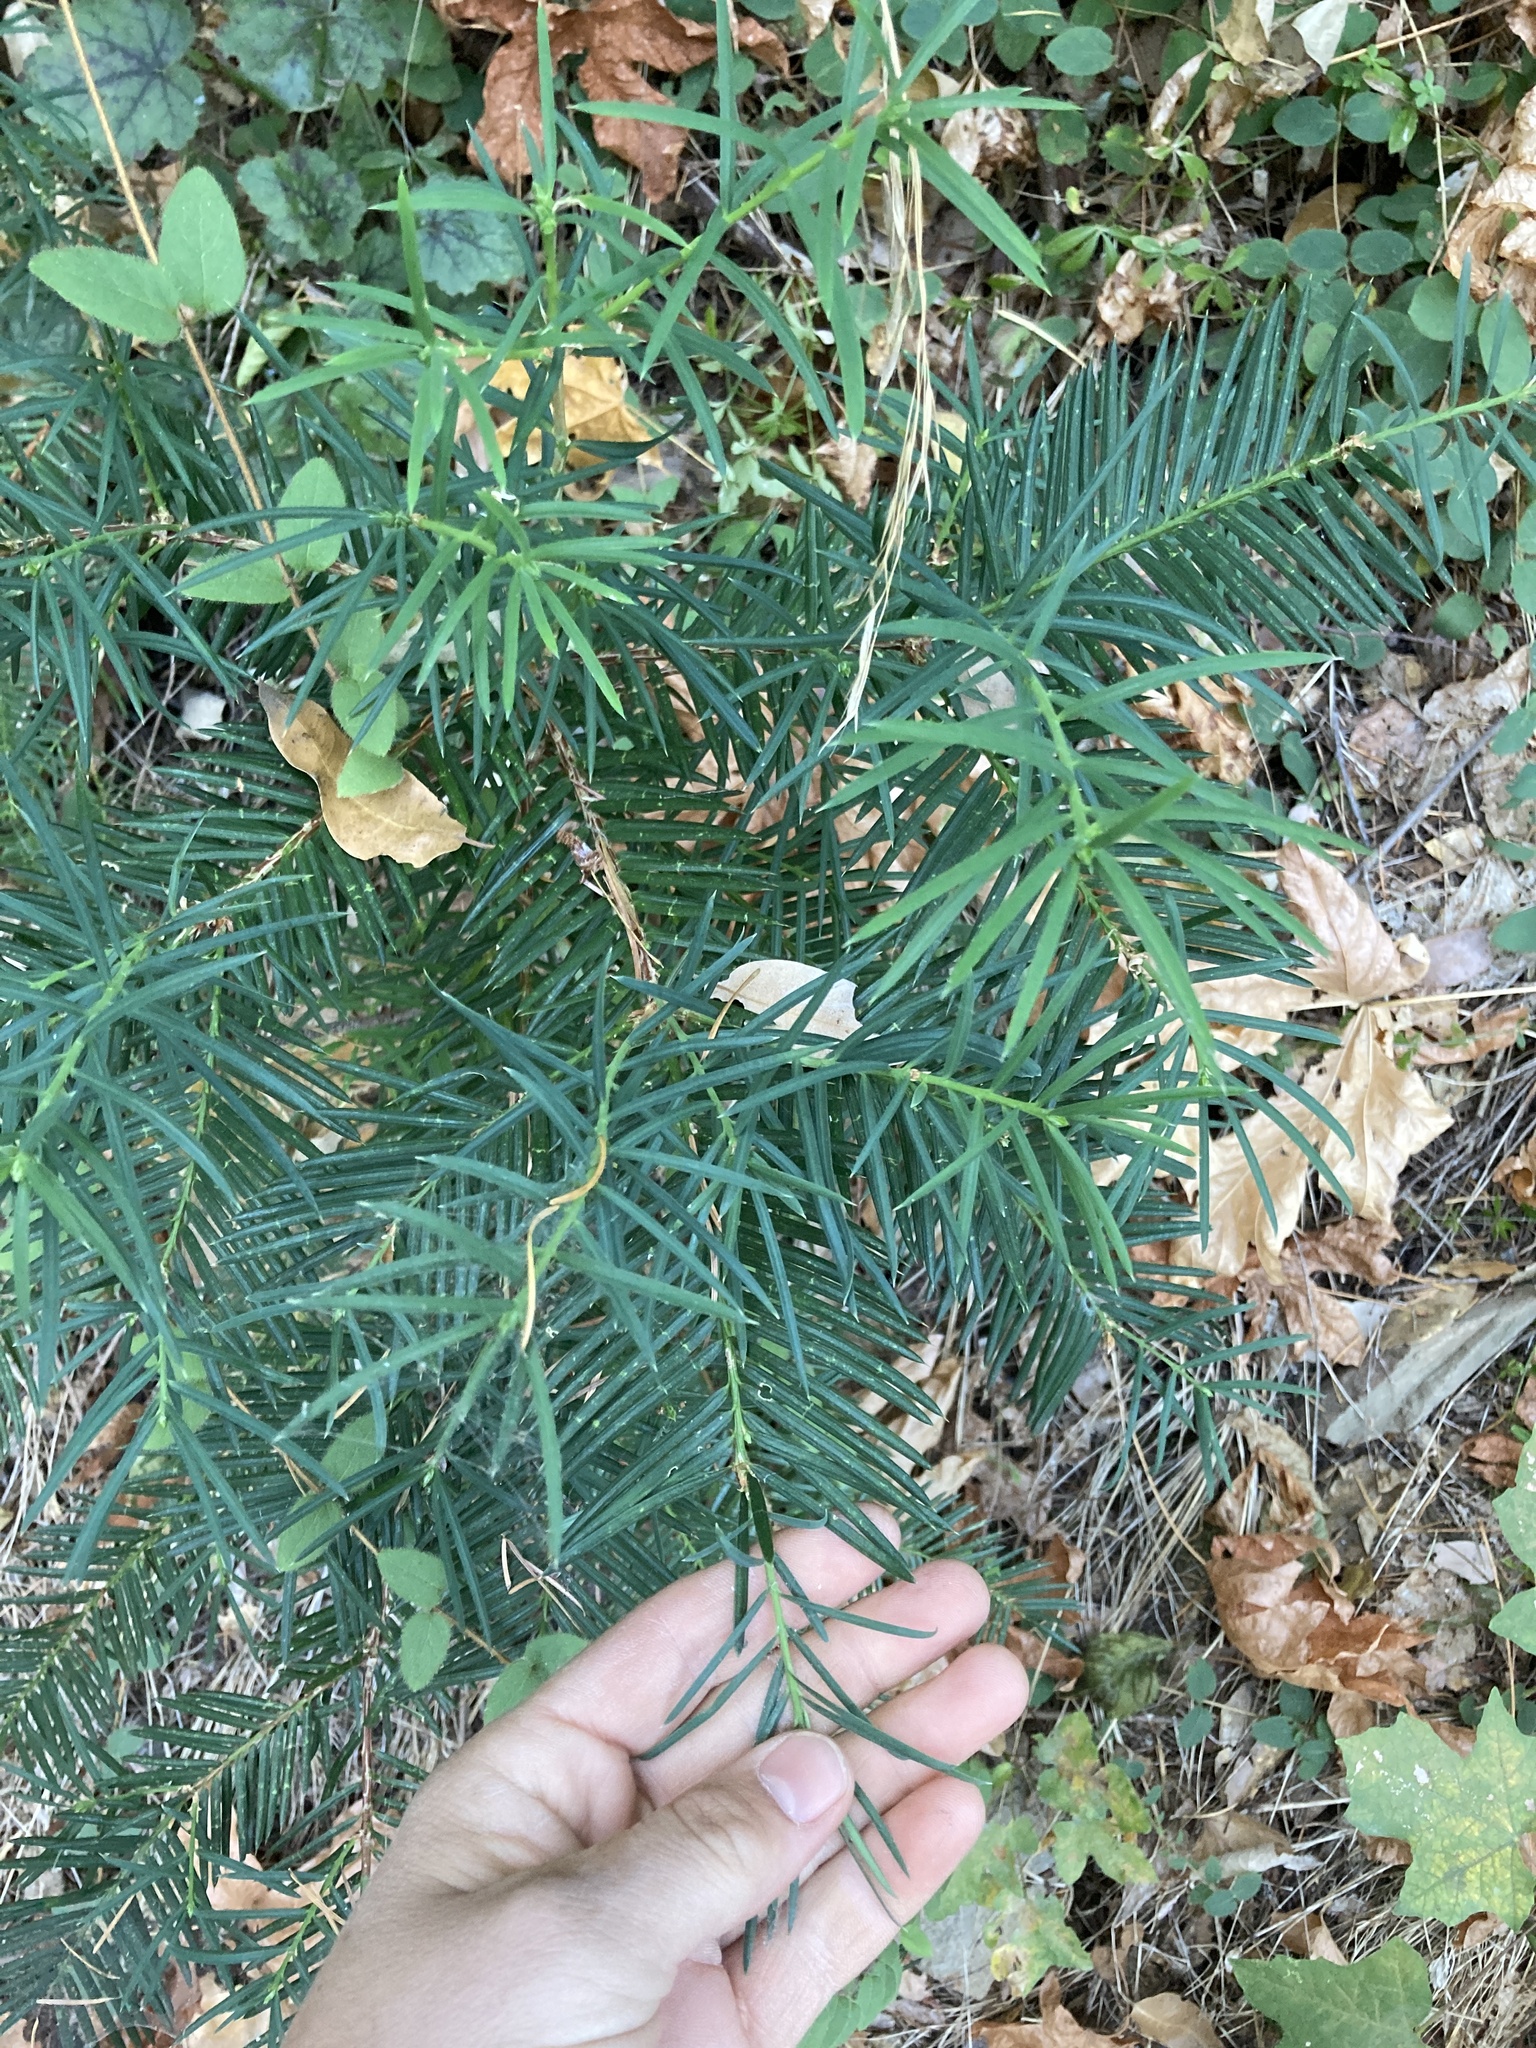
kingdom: Plantae
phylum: Tracheophyta
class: Pinopsida
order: Pinales
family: Taxaceae
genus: Torreya
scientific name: Torreya californica
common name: California torreya
